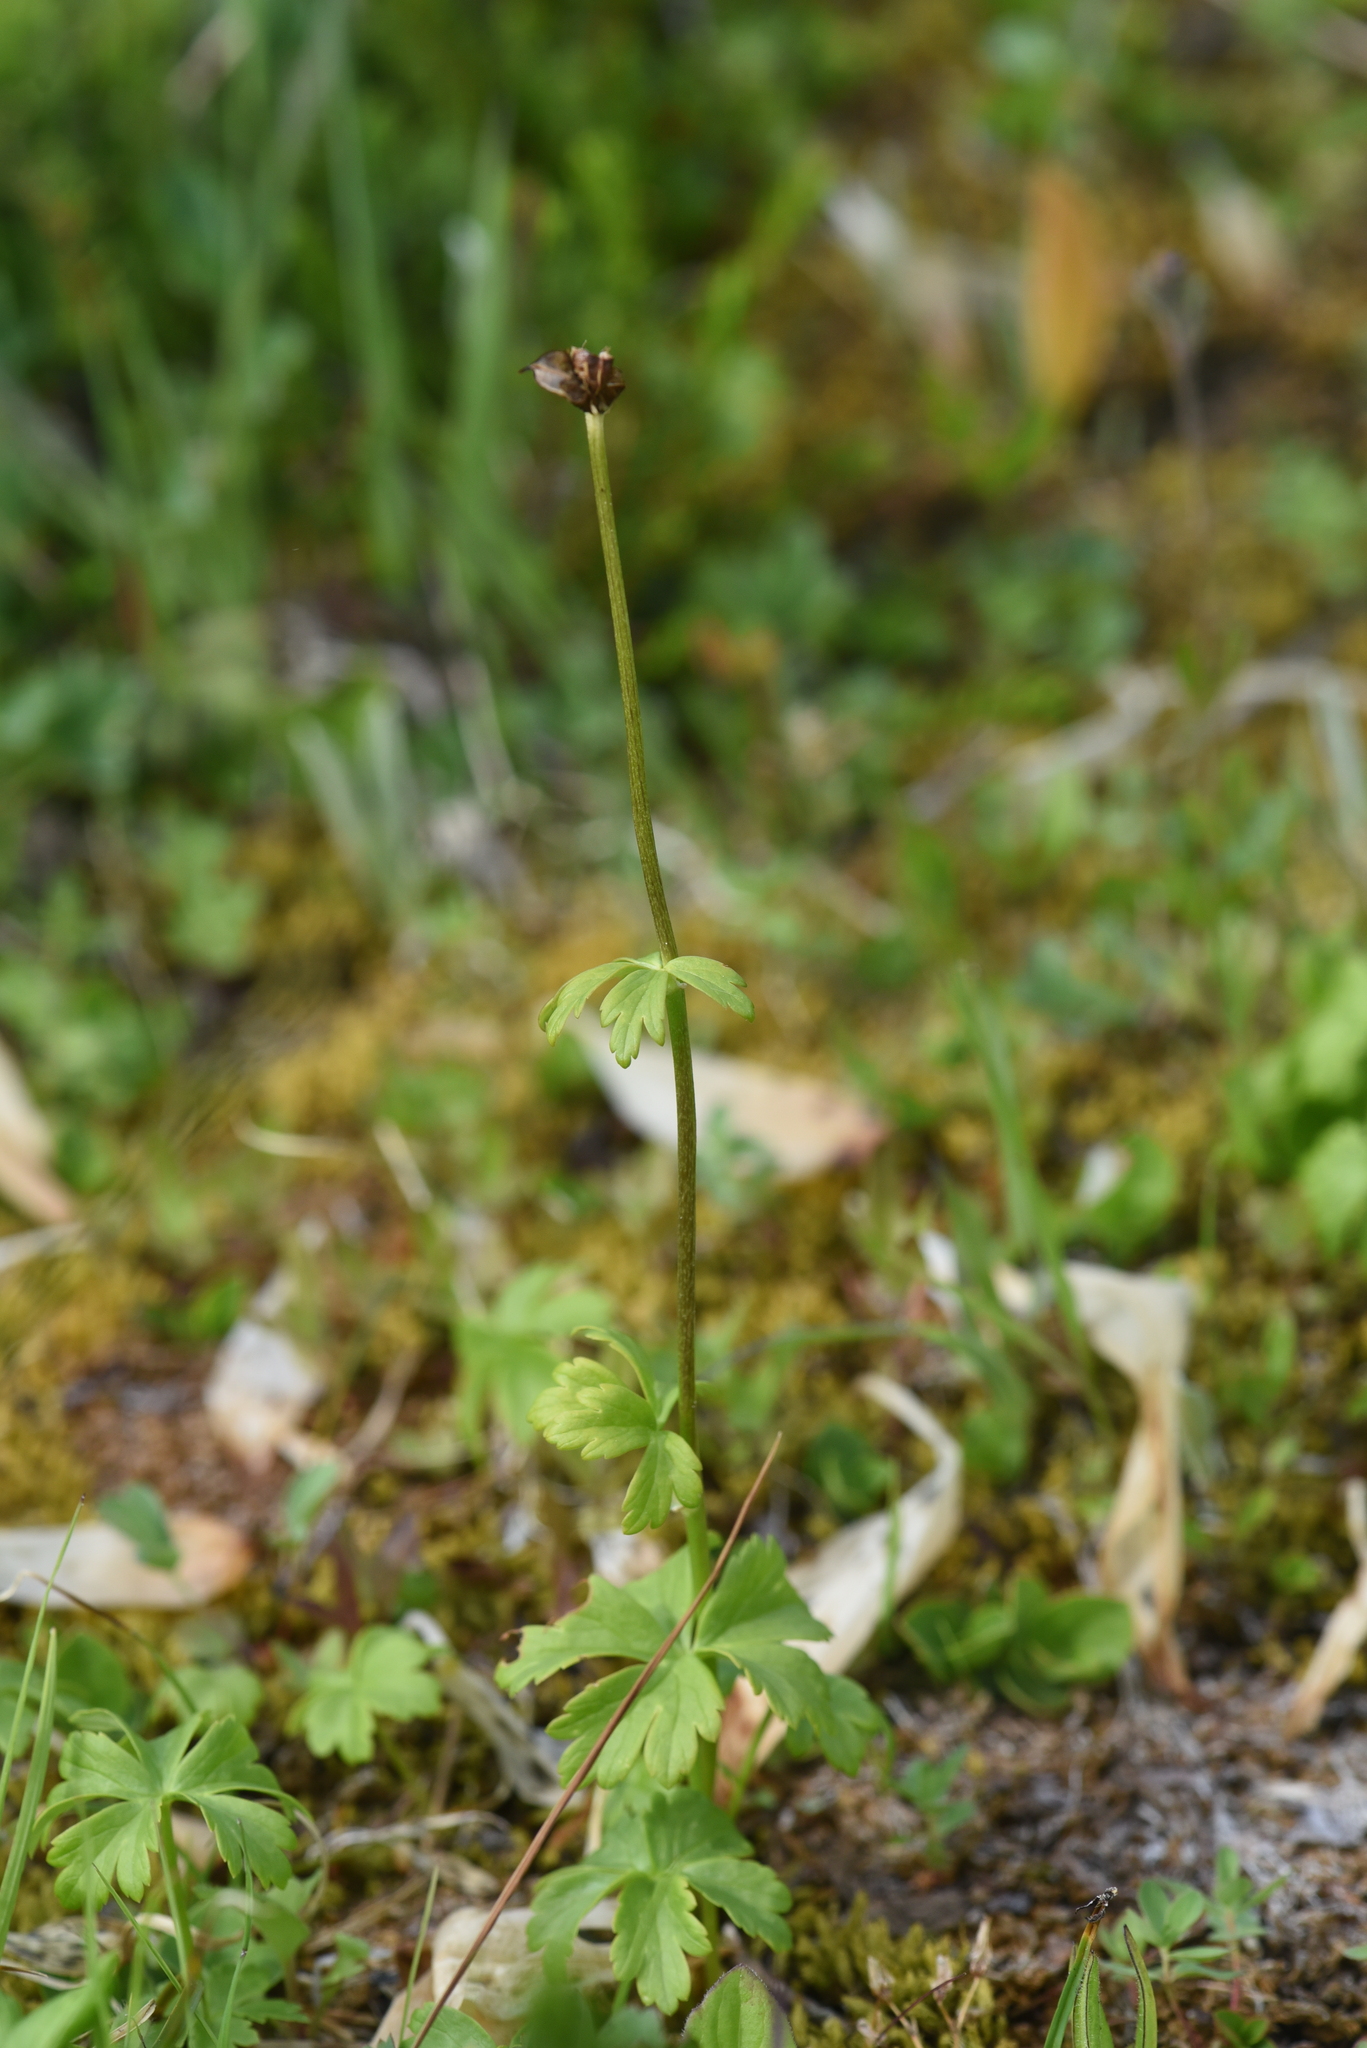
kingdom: Plantae
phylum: Tracheophyta
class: Magnoliopsida
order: Ranunculales
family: Ranunculaceae
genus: Trollius
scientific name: Trollius laxus
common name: American globeflower
